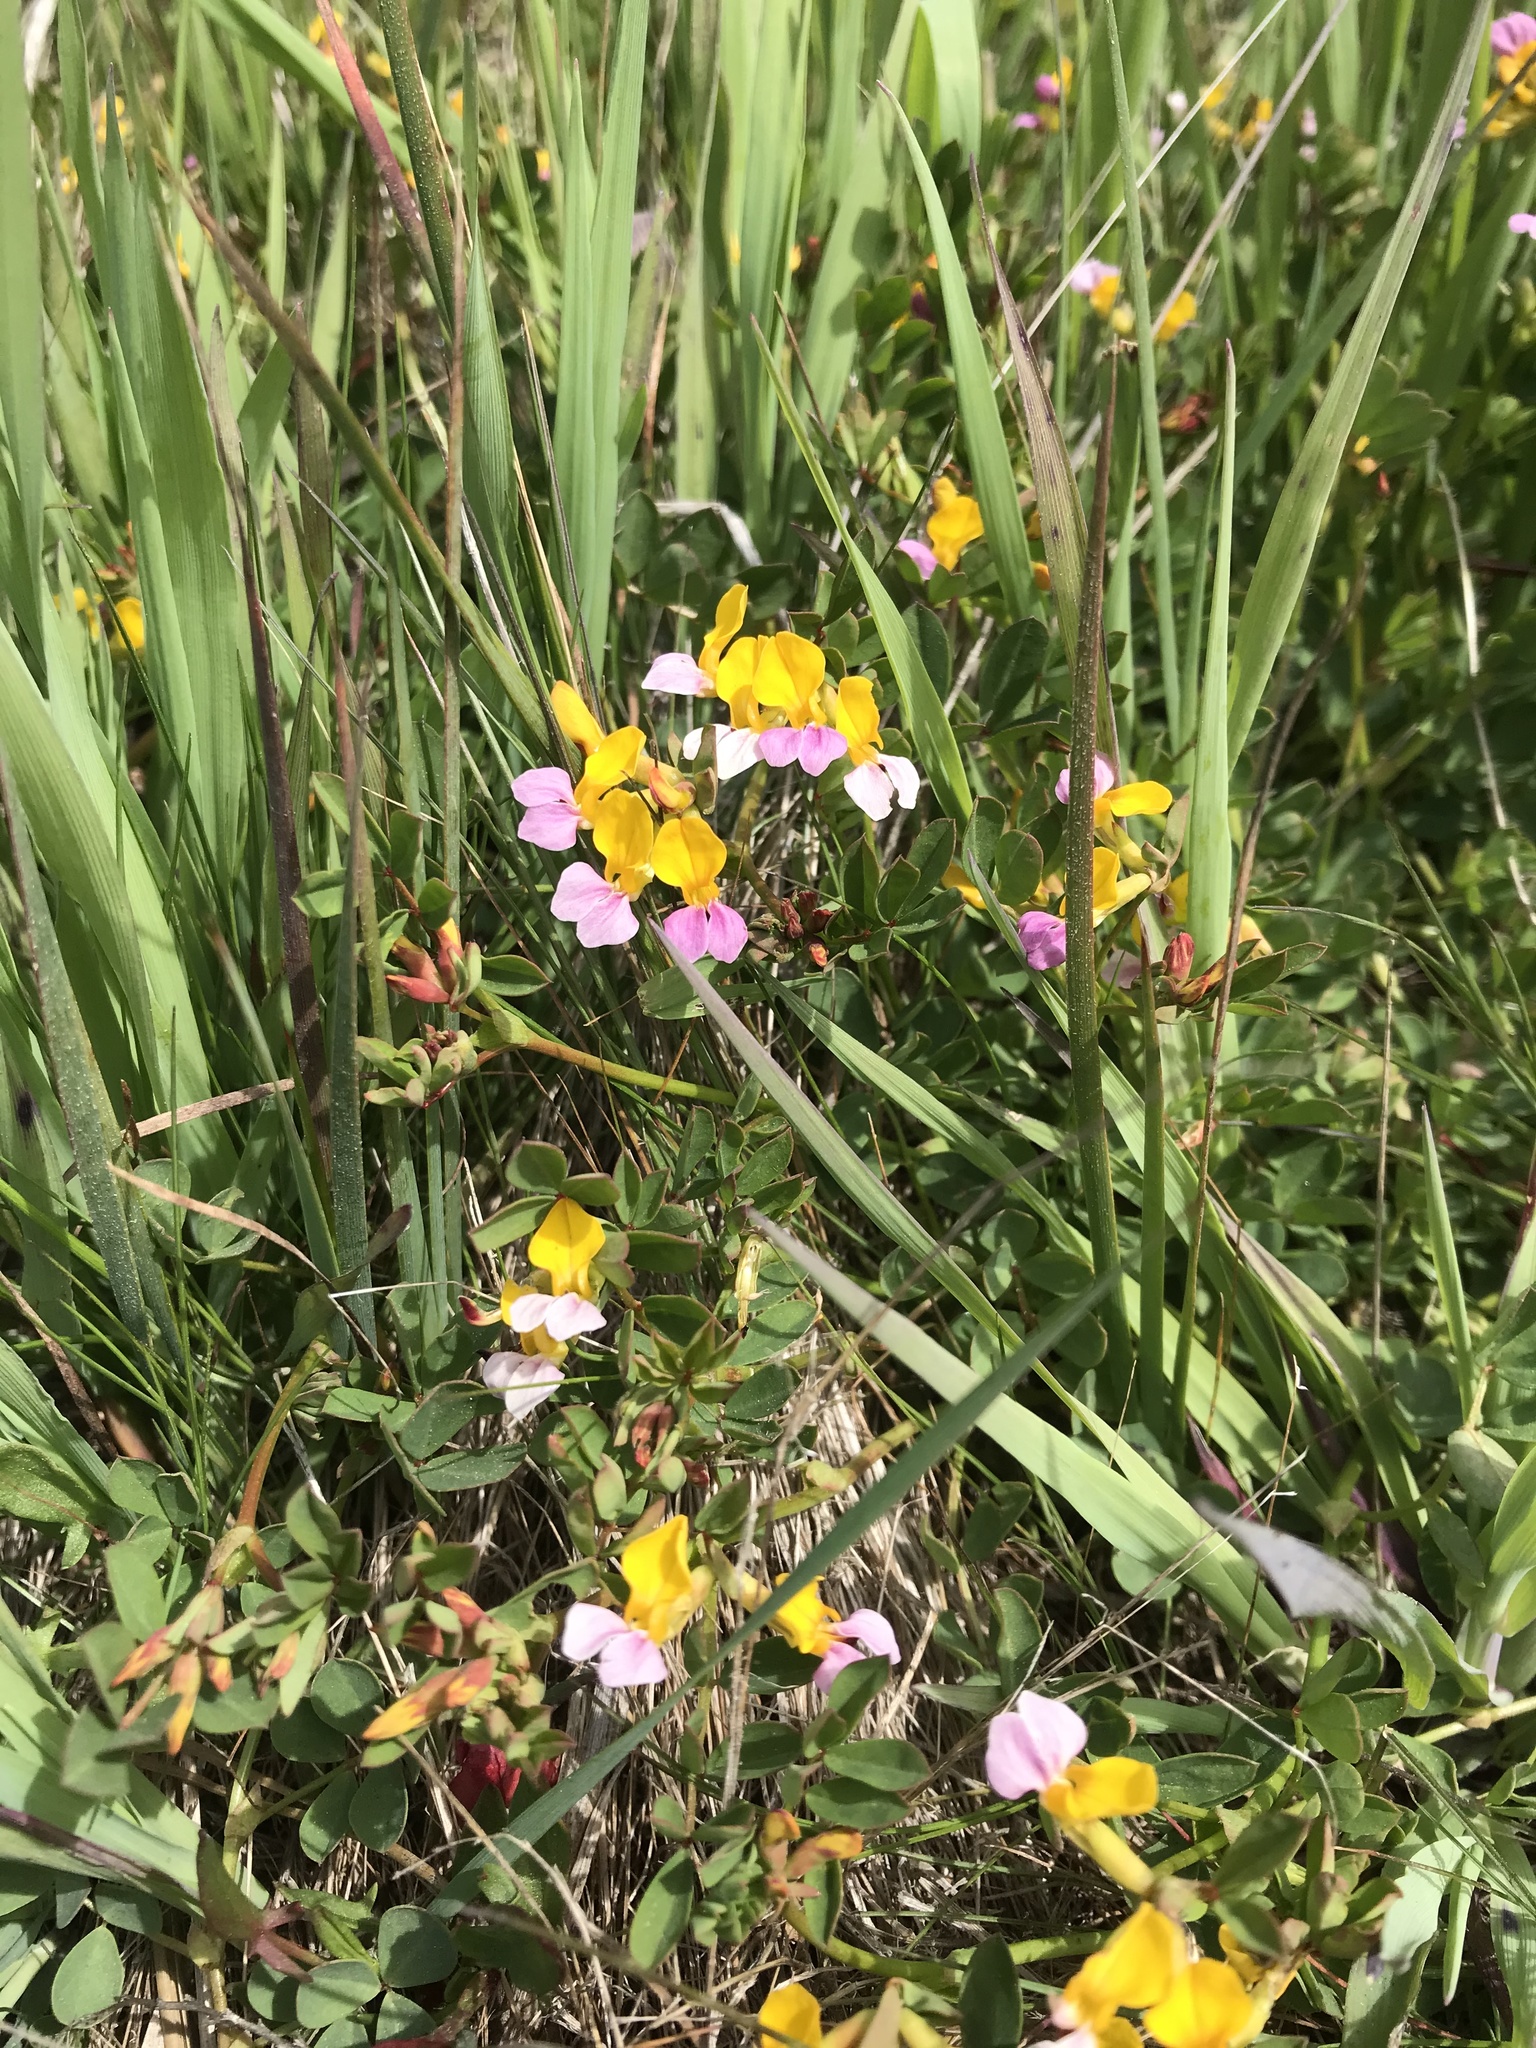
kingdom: Plantae
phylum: Tracheophyta
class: Magnoliopsida
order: Fabales
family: Fabaceae
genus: Hosackia
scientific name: Hosackia gracilis
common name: Seaside bird's-foot lotus
